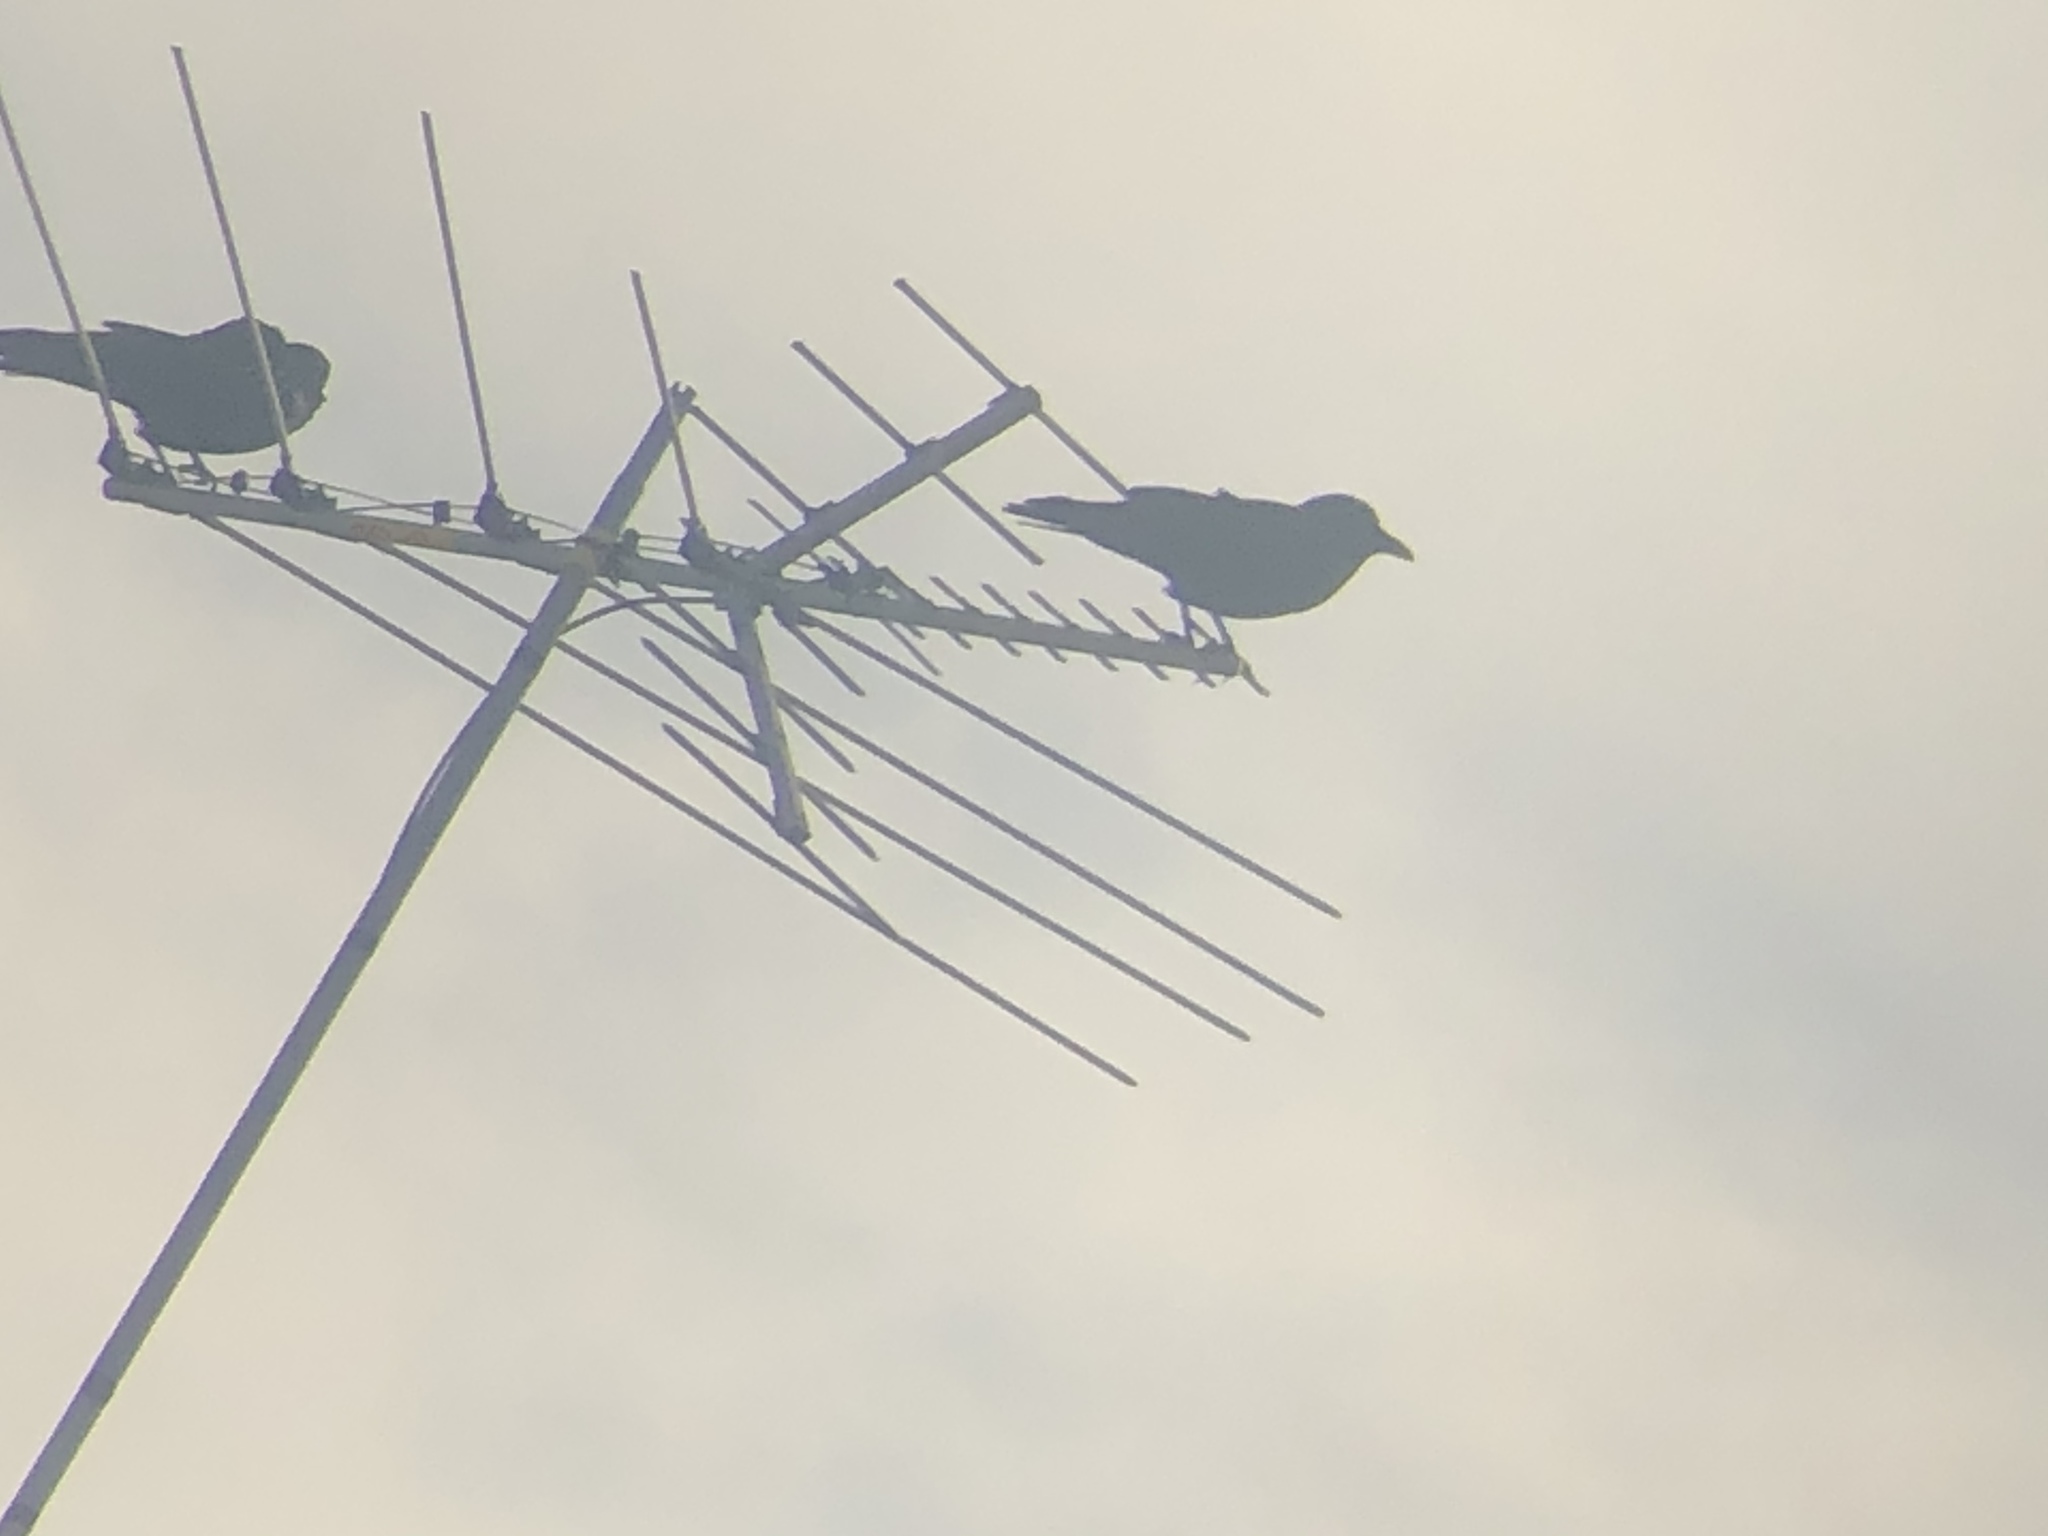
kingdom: Animalia
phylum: Chordata
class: Aves
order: Passeriformes
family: Corvidae
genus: Corvus
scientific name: Corvus brachyrhynchos
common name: American crow
